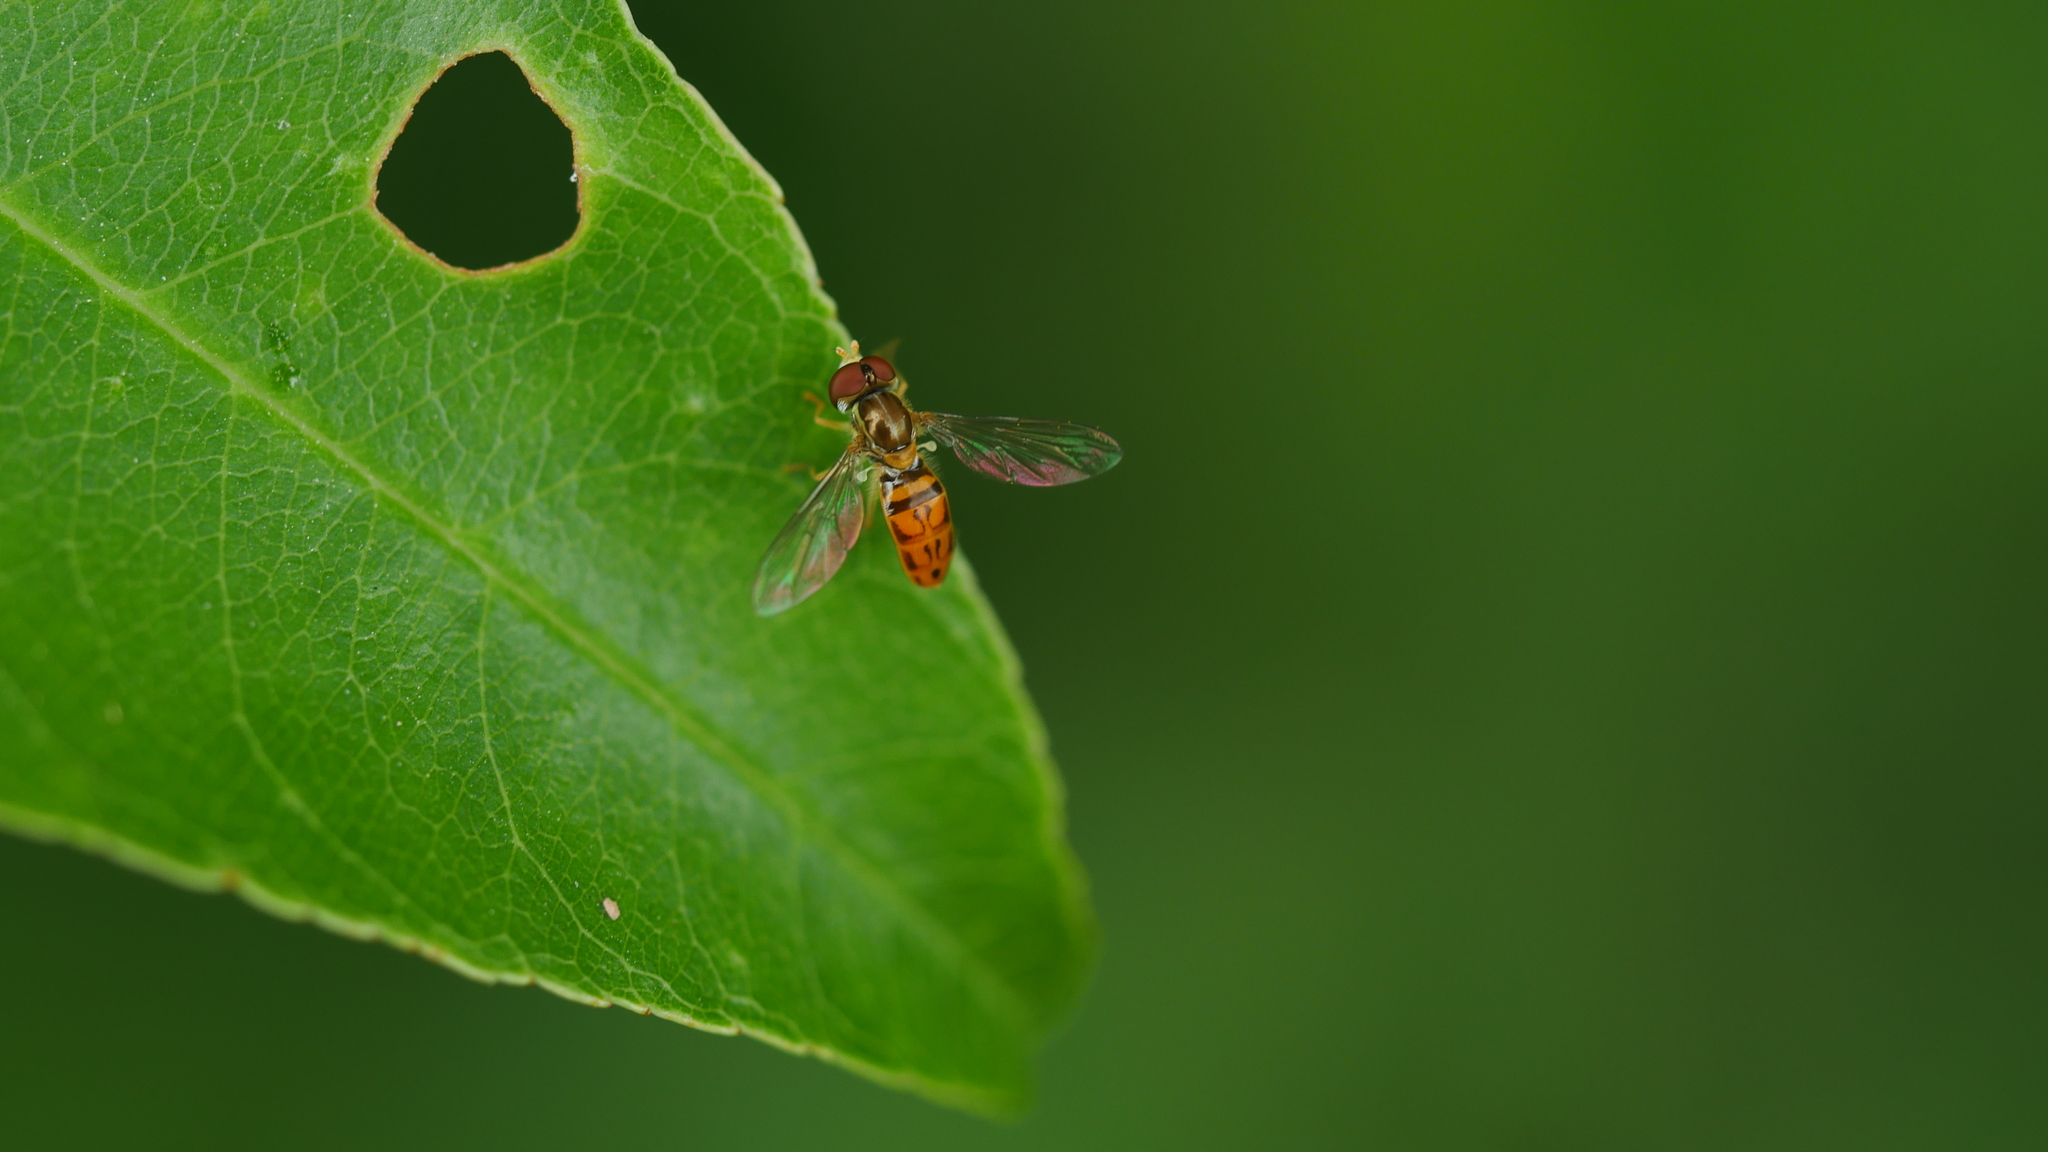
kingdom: Animalia
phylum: Arthropoda
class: Insecta
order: Diptera
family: Syrphidae
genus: Toxomerus
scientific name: Toxomerus marginatus
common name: Syrphid fly
